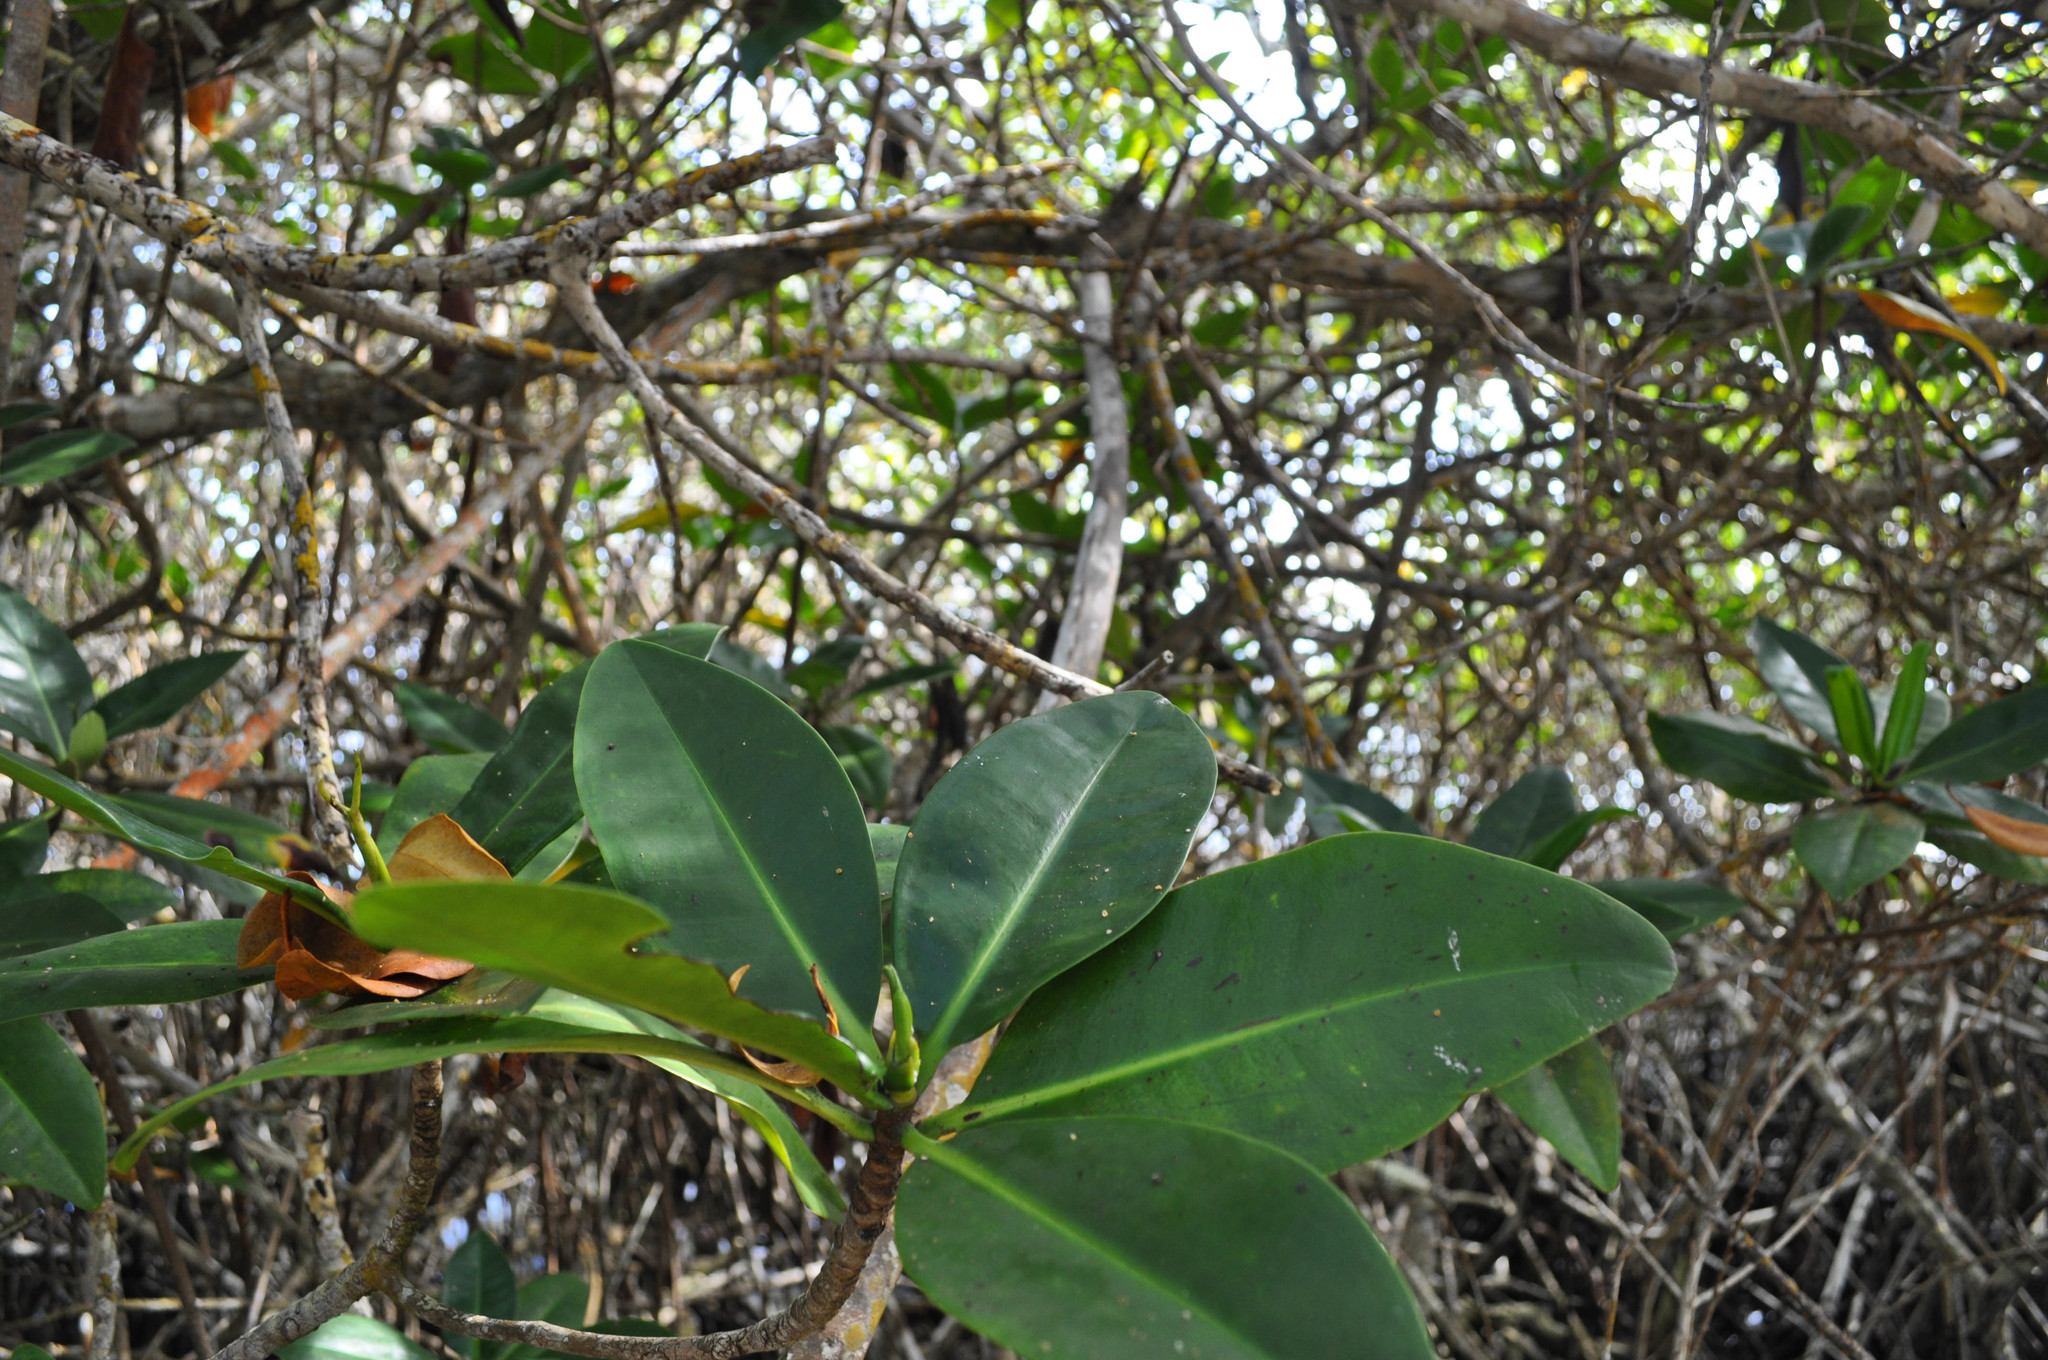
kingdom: Plantae
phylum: Tracheophyta
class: Magnoliopsida
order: Malpighiales
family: Rhizophoraceae
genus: Rhizophora
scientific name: Rhizophora mangle
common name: Red mangrove
